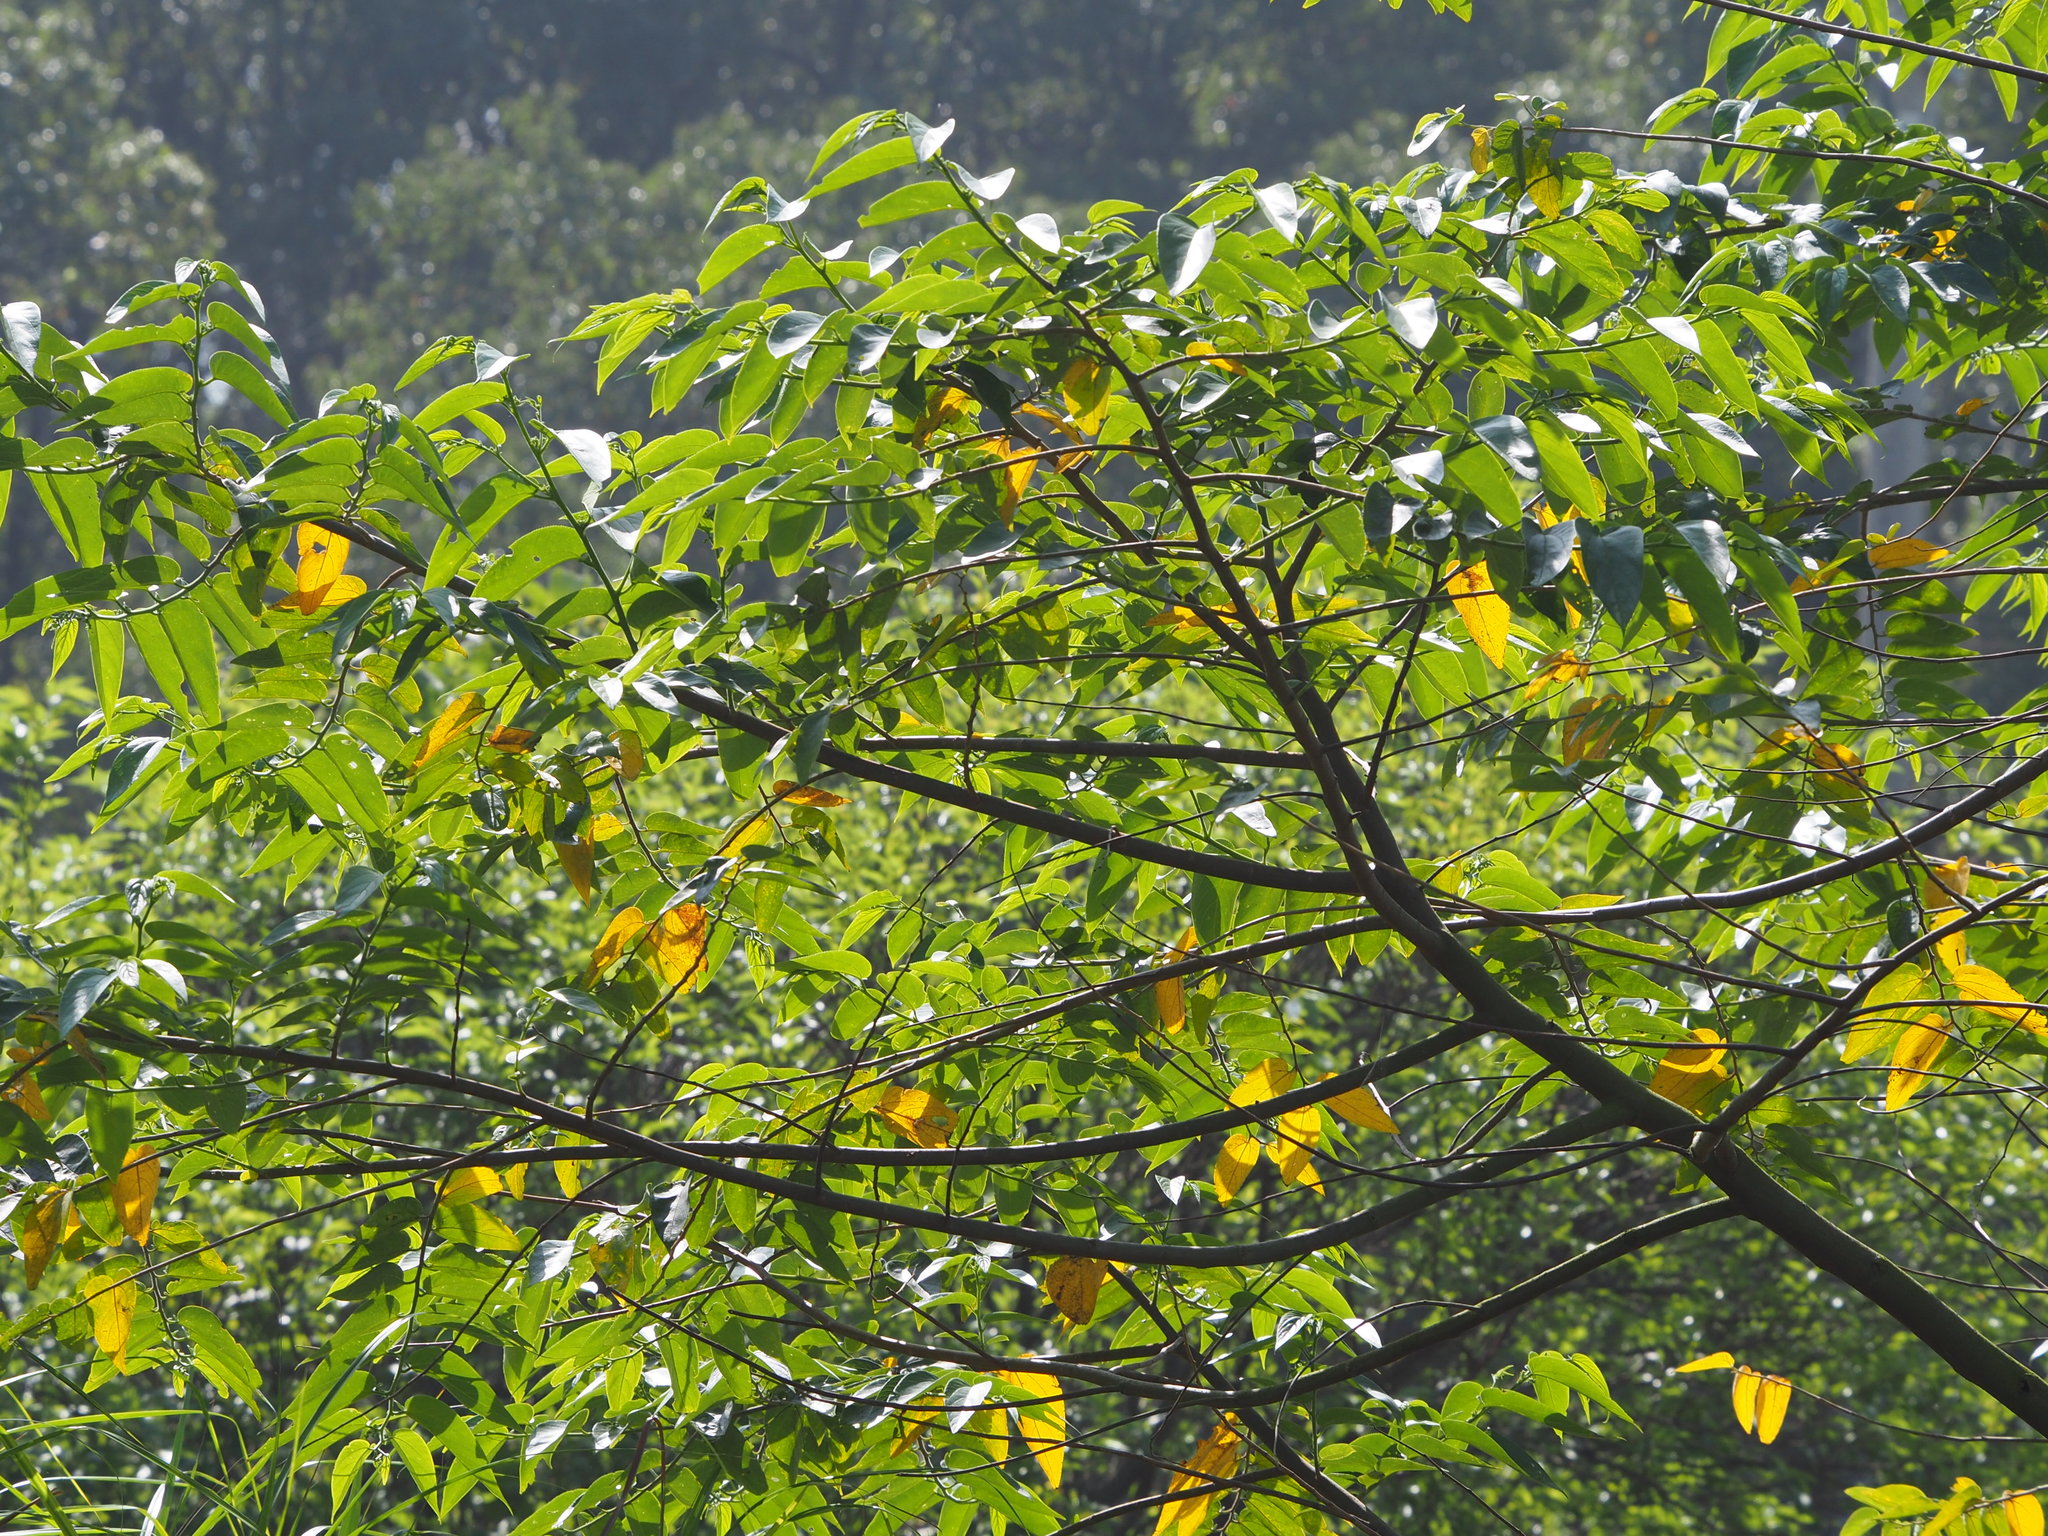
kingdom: Plantae
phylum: Tracheophyta
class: Magnoliopsida
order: Rosales
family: Cannabaceae
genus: Trema
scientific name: Trema orientale
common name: Indian charcoal tree
